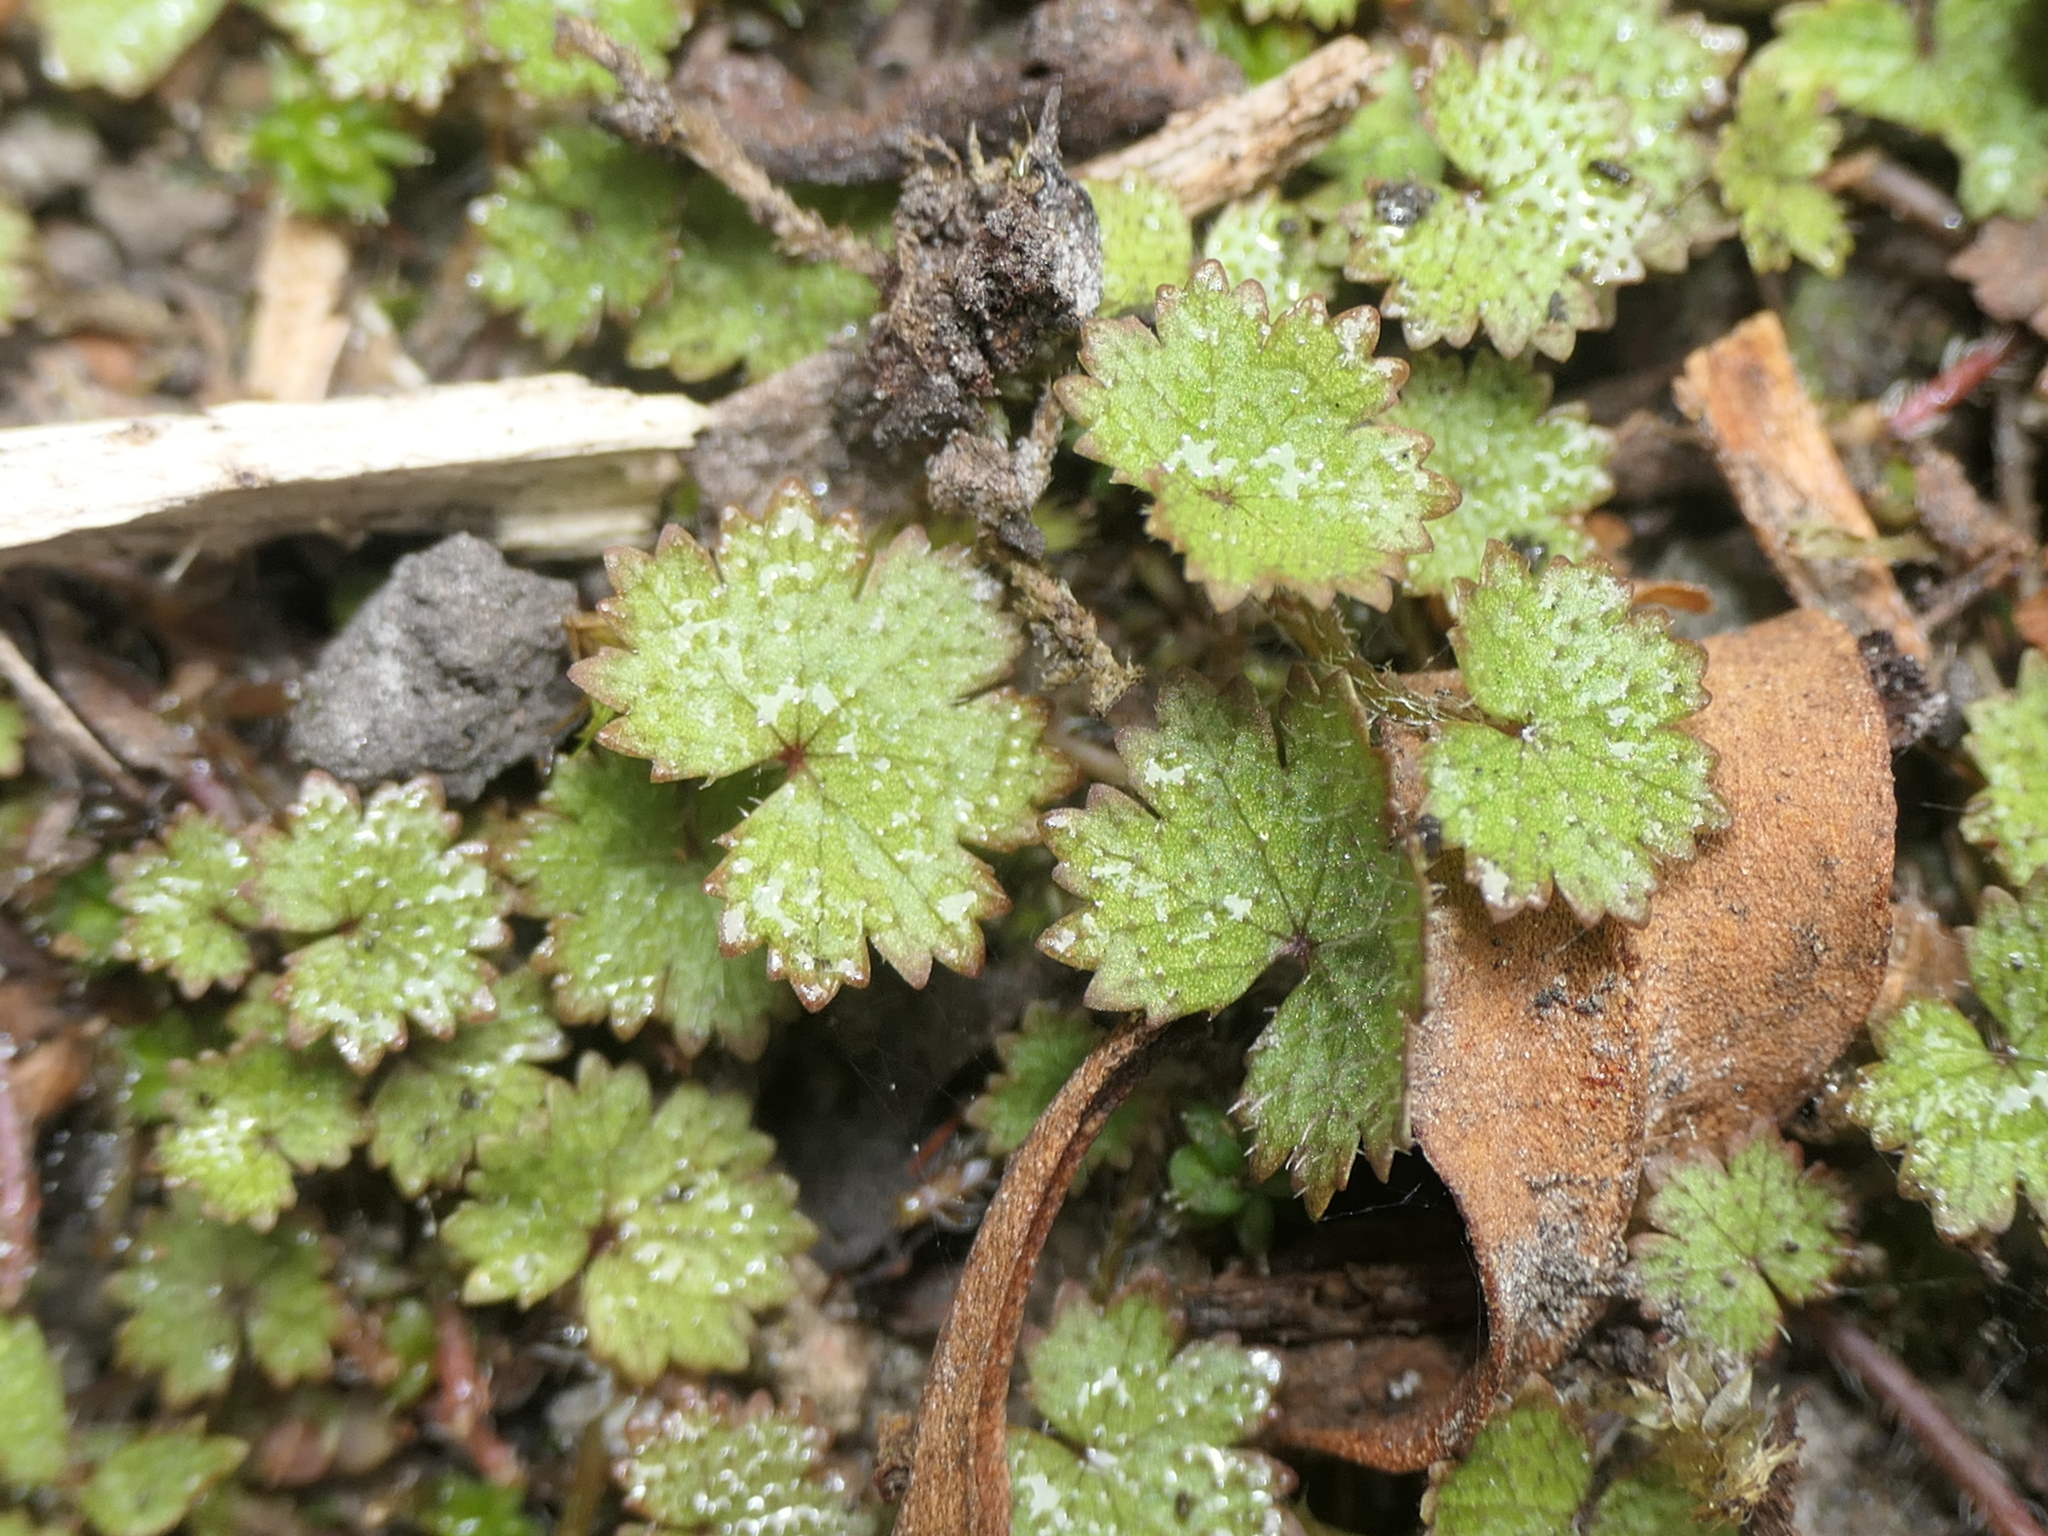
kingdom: Plantae
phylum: Tracheophyta
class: Magnoliopsida
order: Apiales
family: Araliaceae
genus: Hydrocotyle
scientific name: Hydrocotyle moschata
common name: Hairy pennywort
